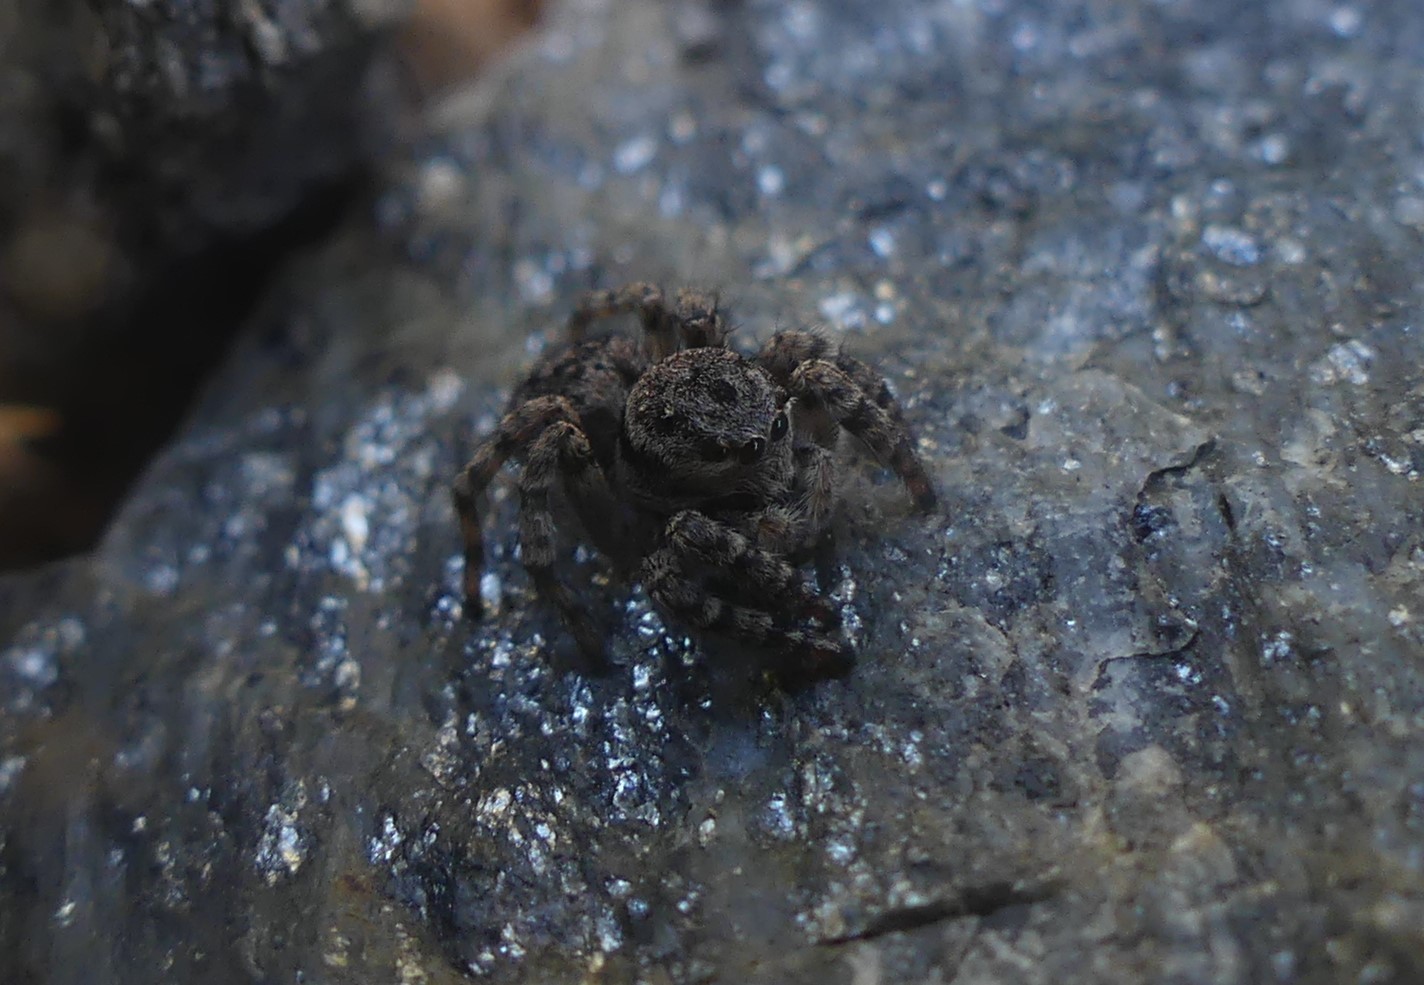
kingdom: Animalia
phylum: Arthropoda
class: Arachnida
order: Araneae
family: Salticidae
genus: Aelurillus
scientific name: Aelurillus v-insignitus
